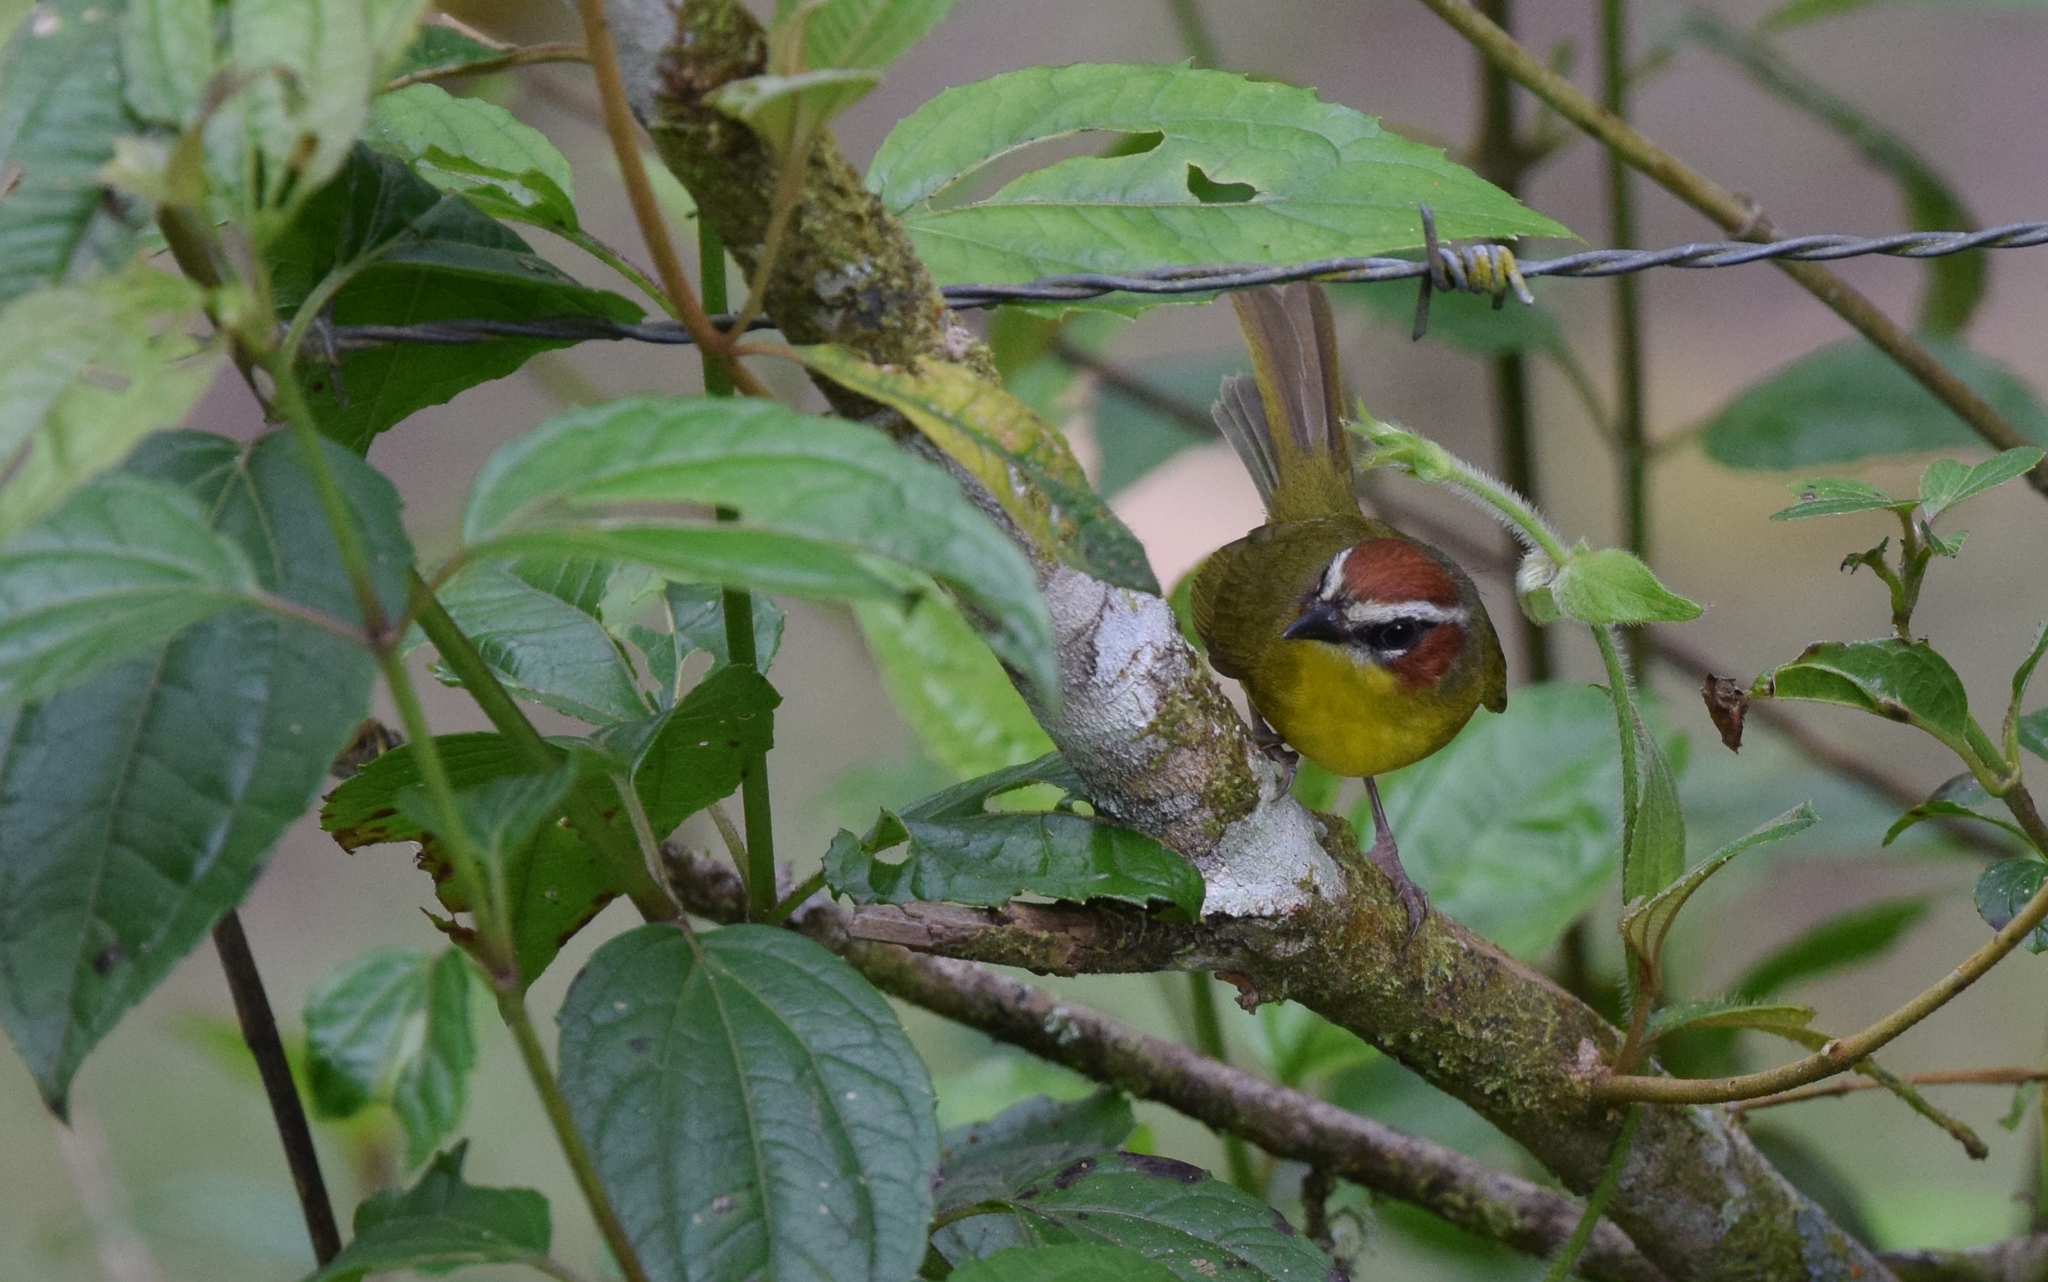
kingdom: Animalia
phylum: Chordata
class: Aves
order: Passeriformes
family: Parulidae
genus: Basileuterus
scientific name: Basileuterus rufifrons
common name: Rufous-capped warbler
